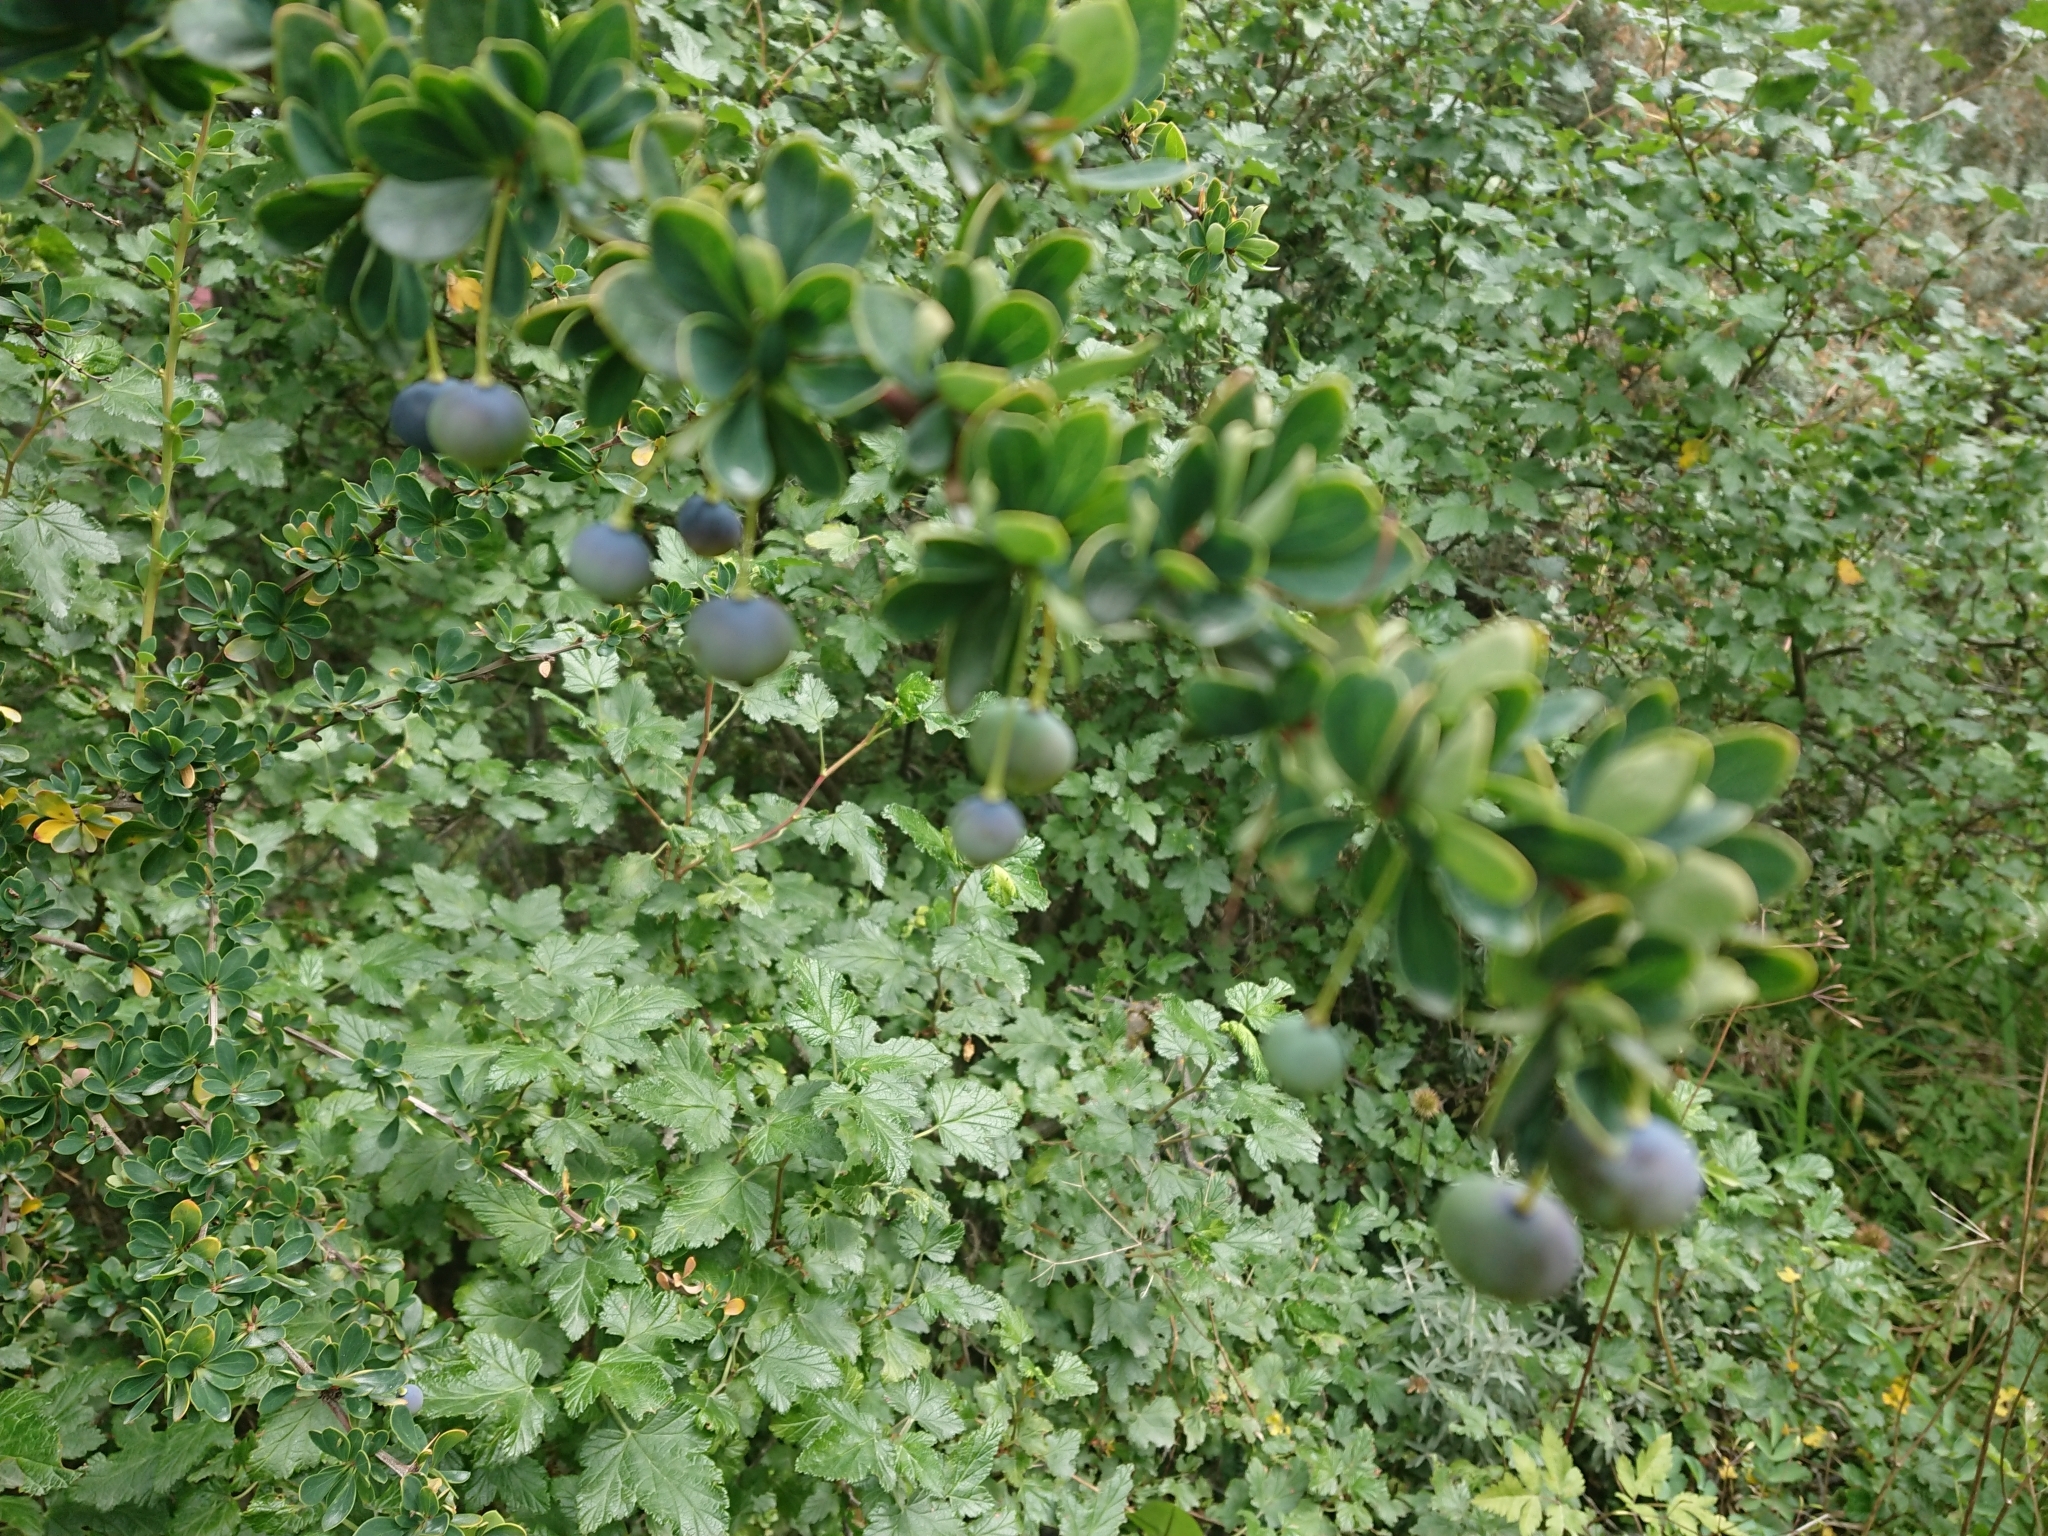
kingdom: Plantae
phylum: Tracheophyta
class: Magnoliopsida
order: Ranunculales
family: Berberidaceae
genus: Berberis
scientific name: Berberis microphylla
